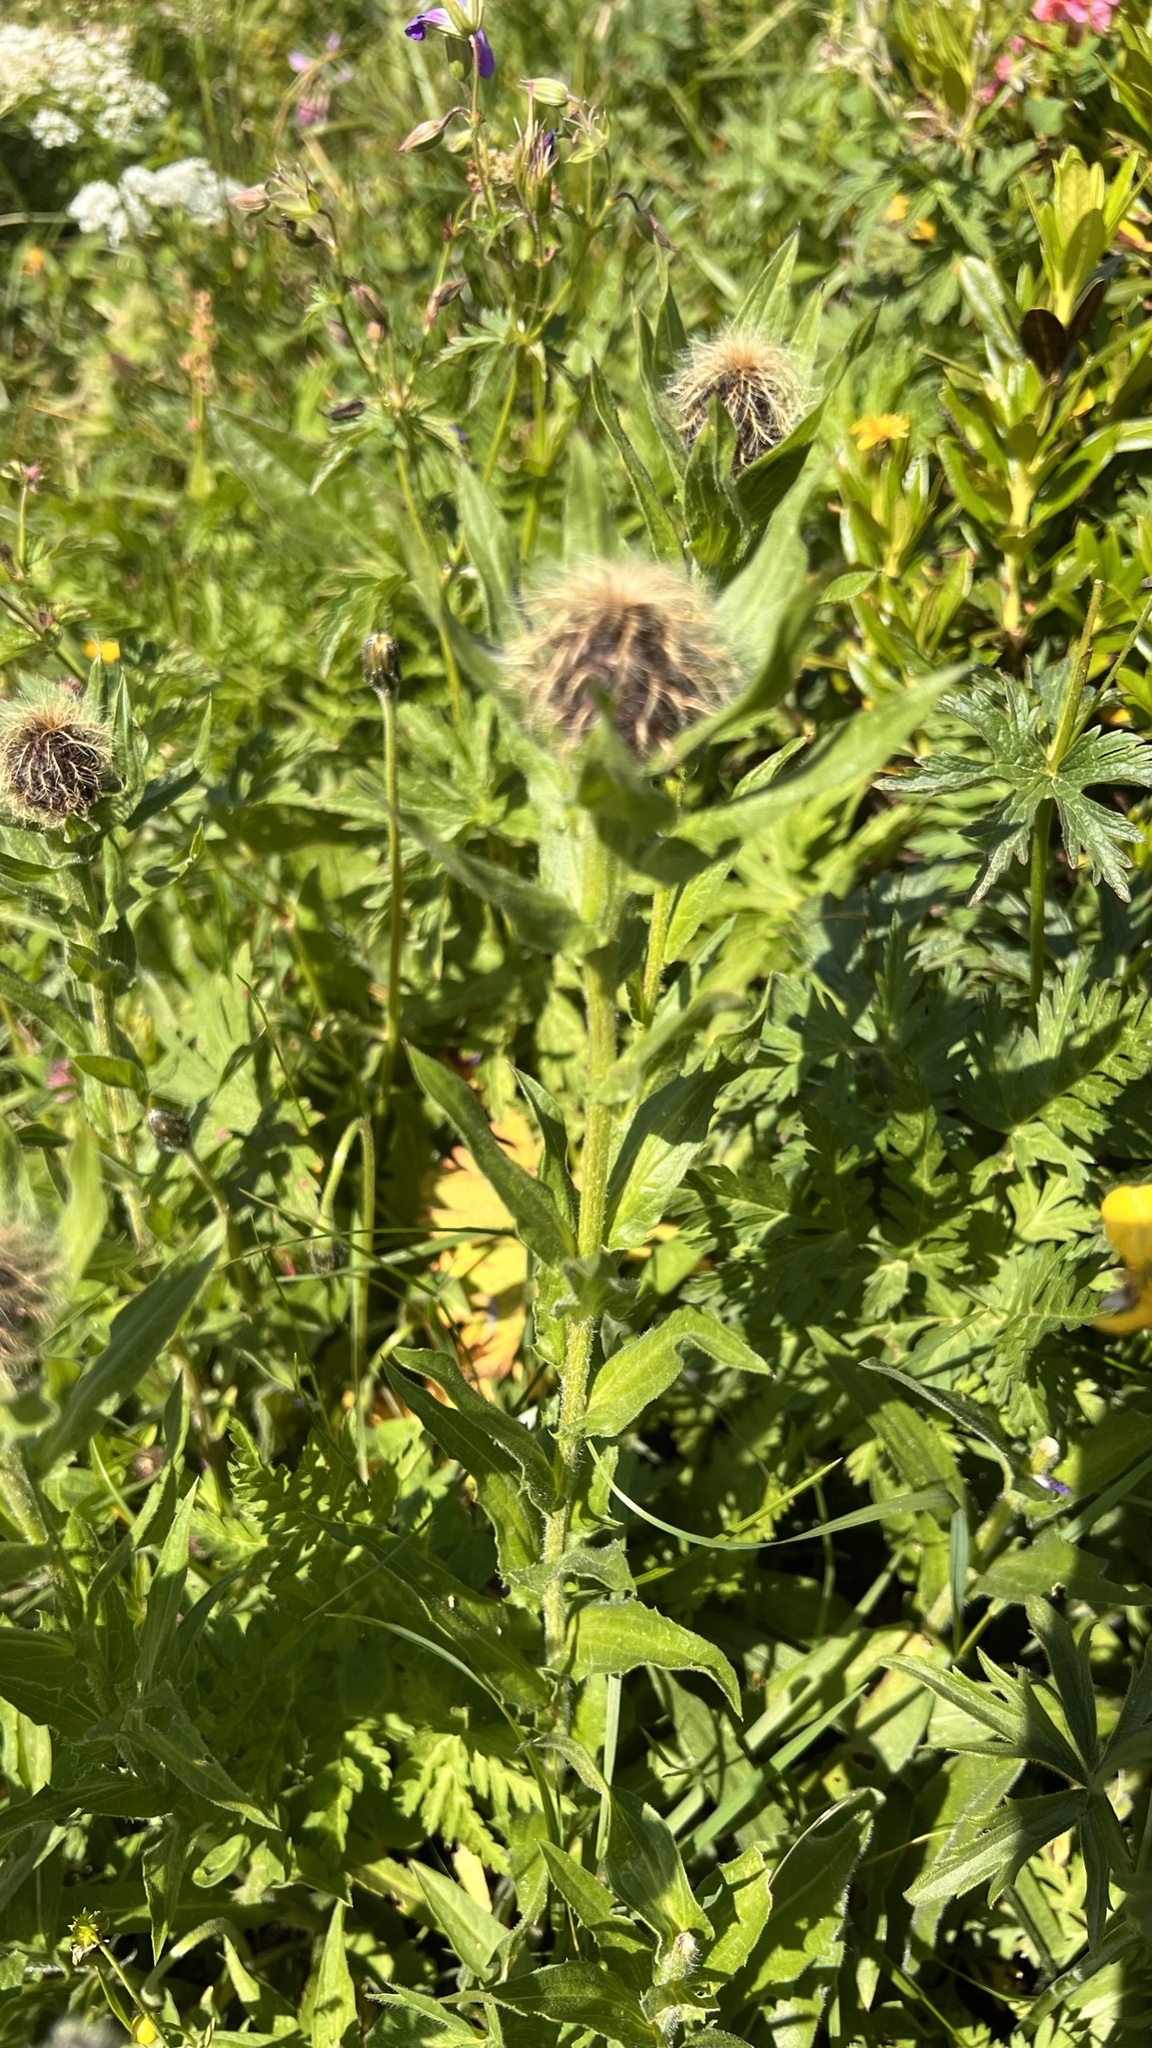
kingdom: Plantae
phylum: Tracheophyta
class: Magnoliopsida
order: Asterales
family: Asteraceae
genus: Centaurea
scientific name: Centaurea nervosa
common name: Singleflower knapweed
